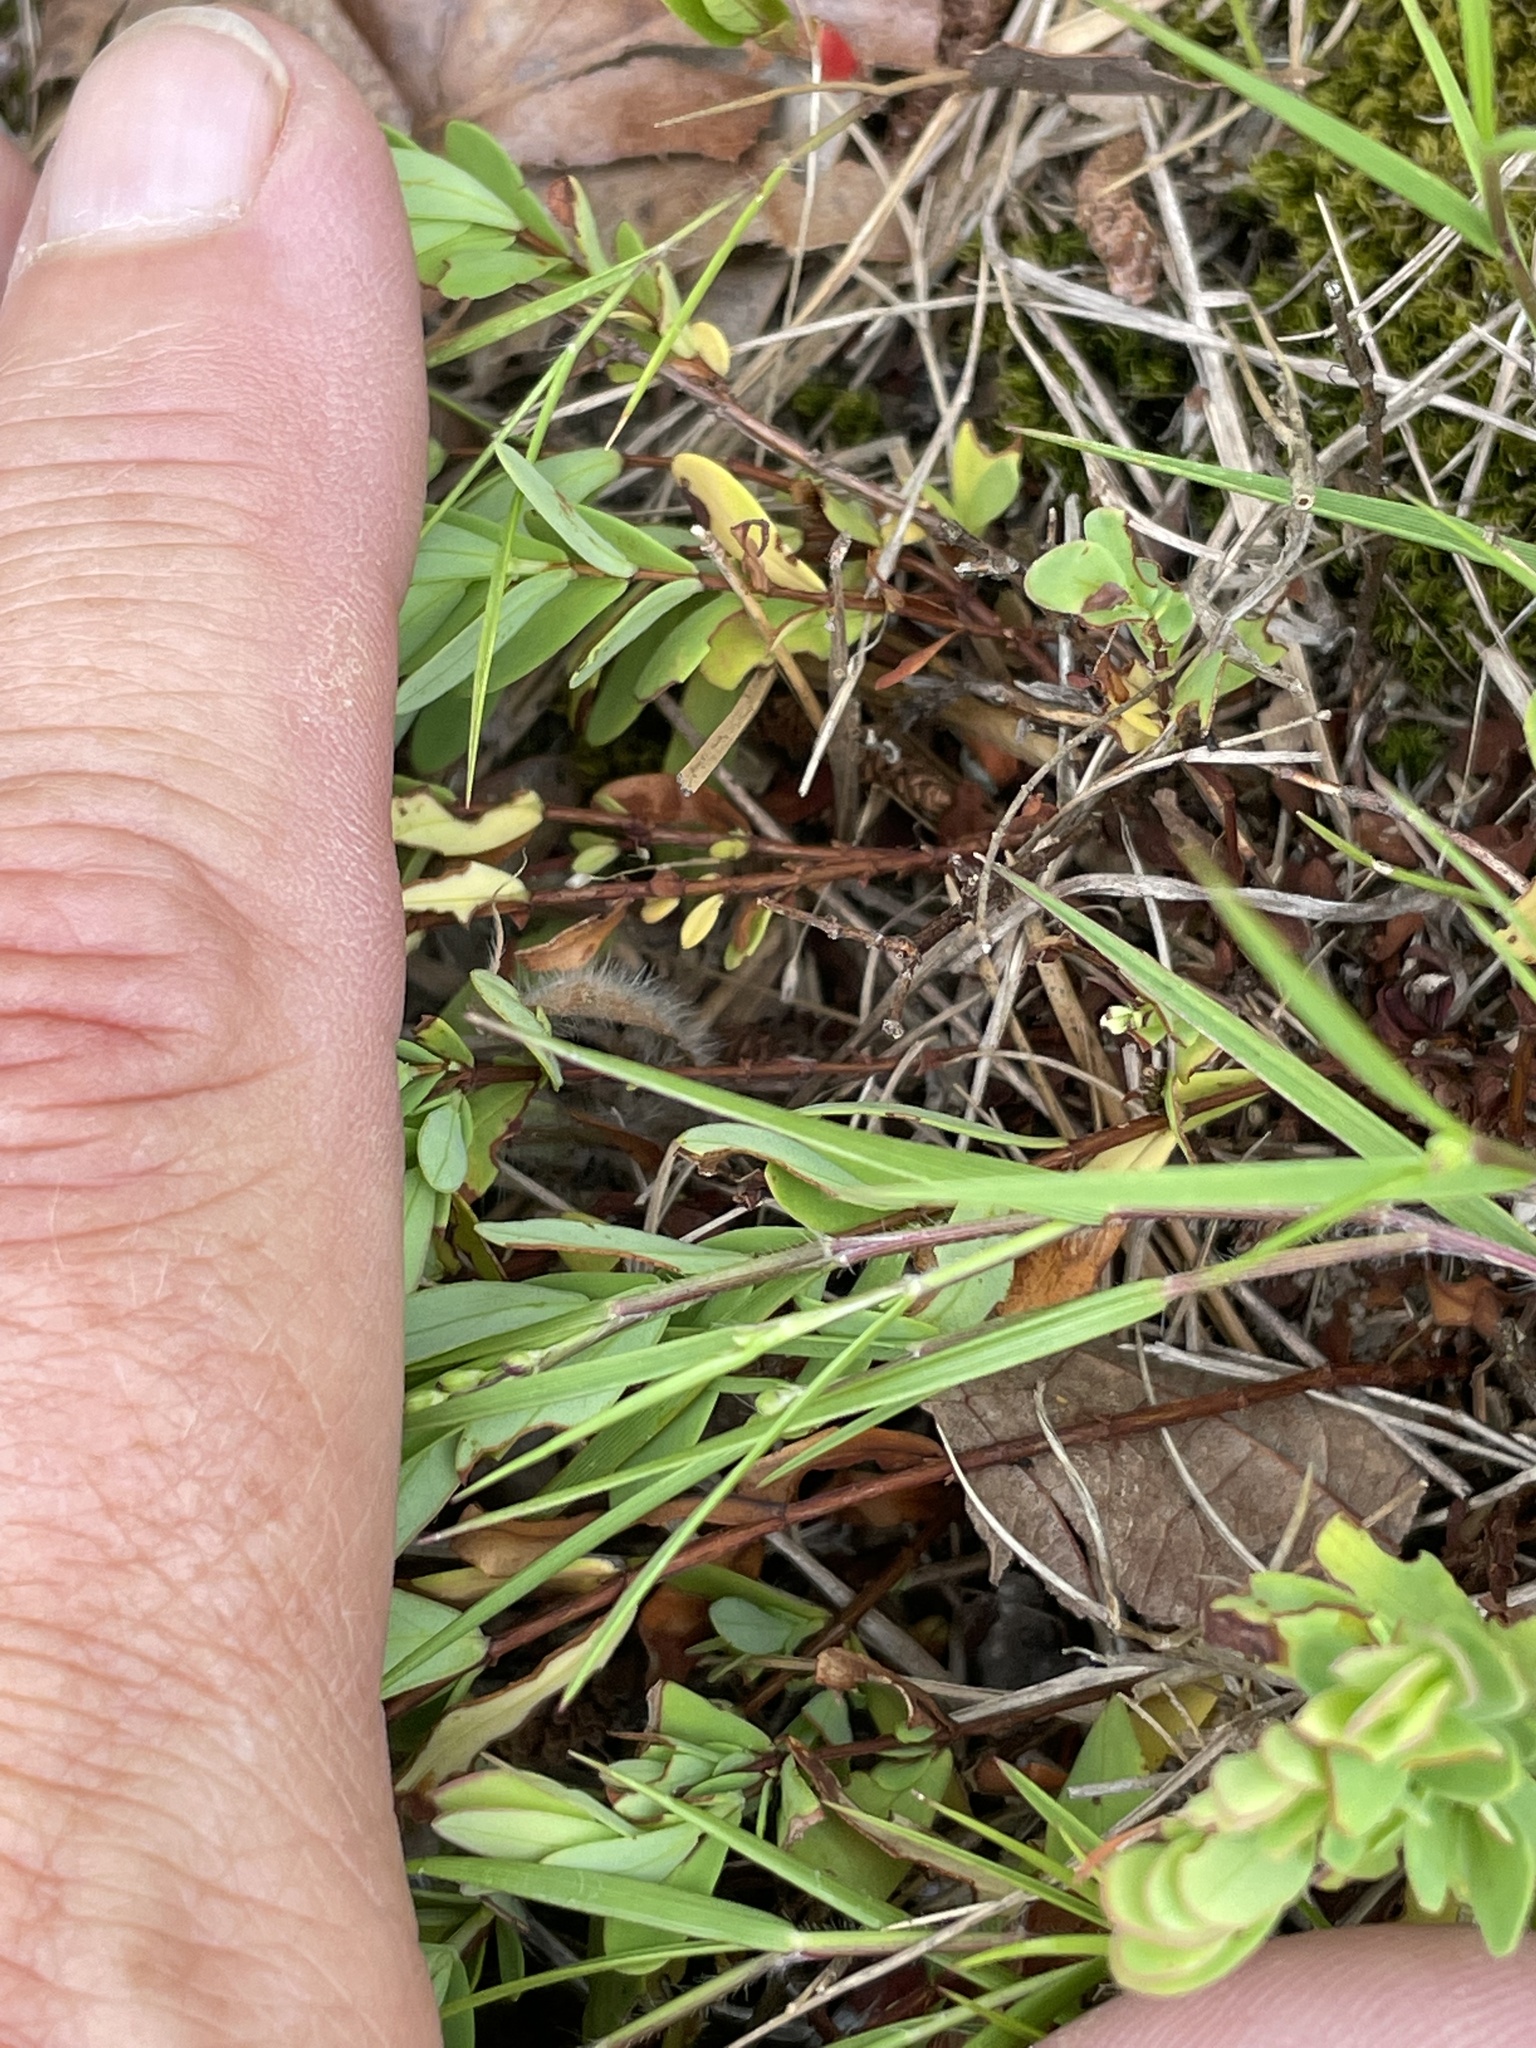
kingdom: Plantae
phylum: Tracheophyta
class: Magnoliopsida
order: Malpighiales
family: Hypericaceae
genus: Hypericum
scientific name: Hypericum hypericoides
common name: St. andrew's cross
